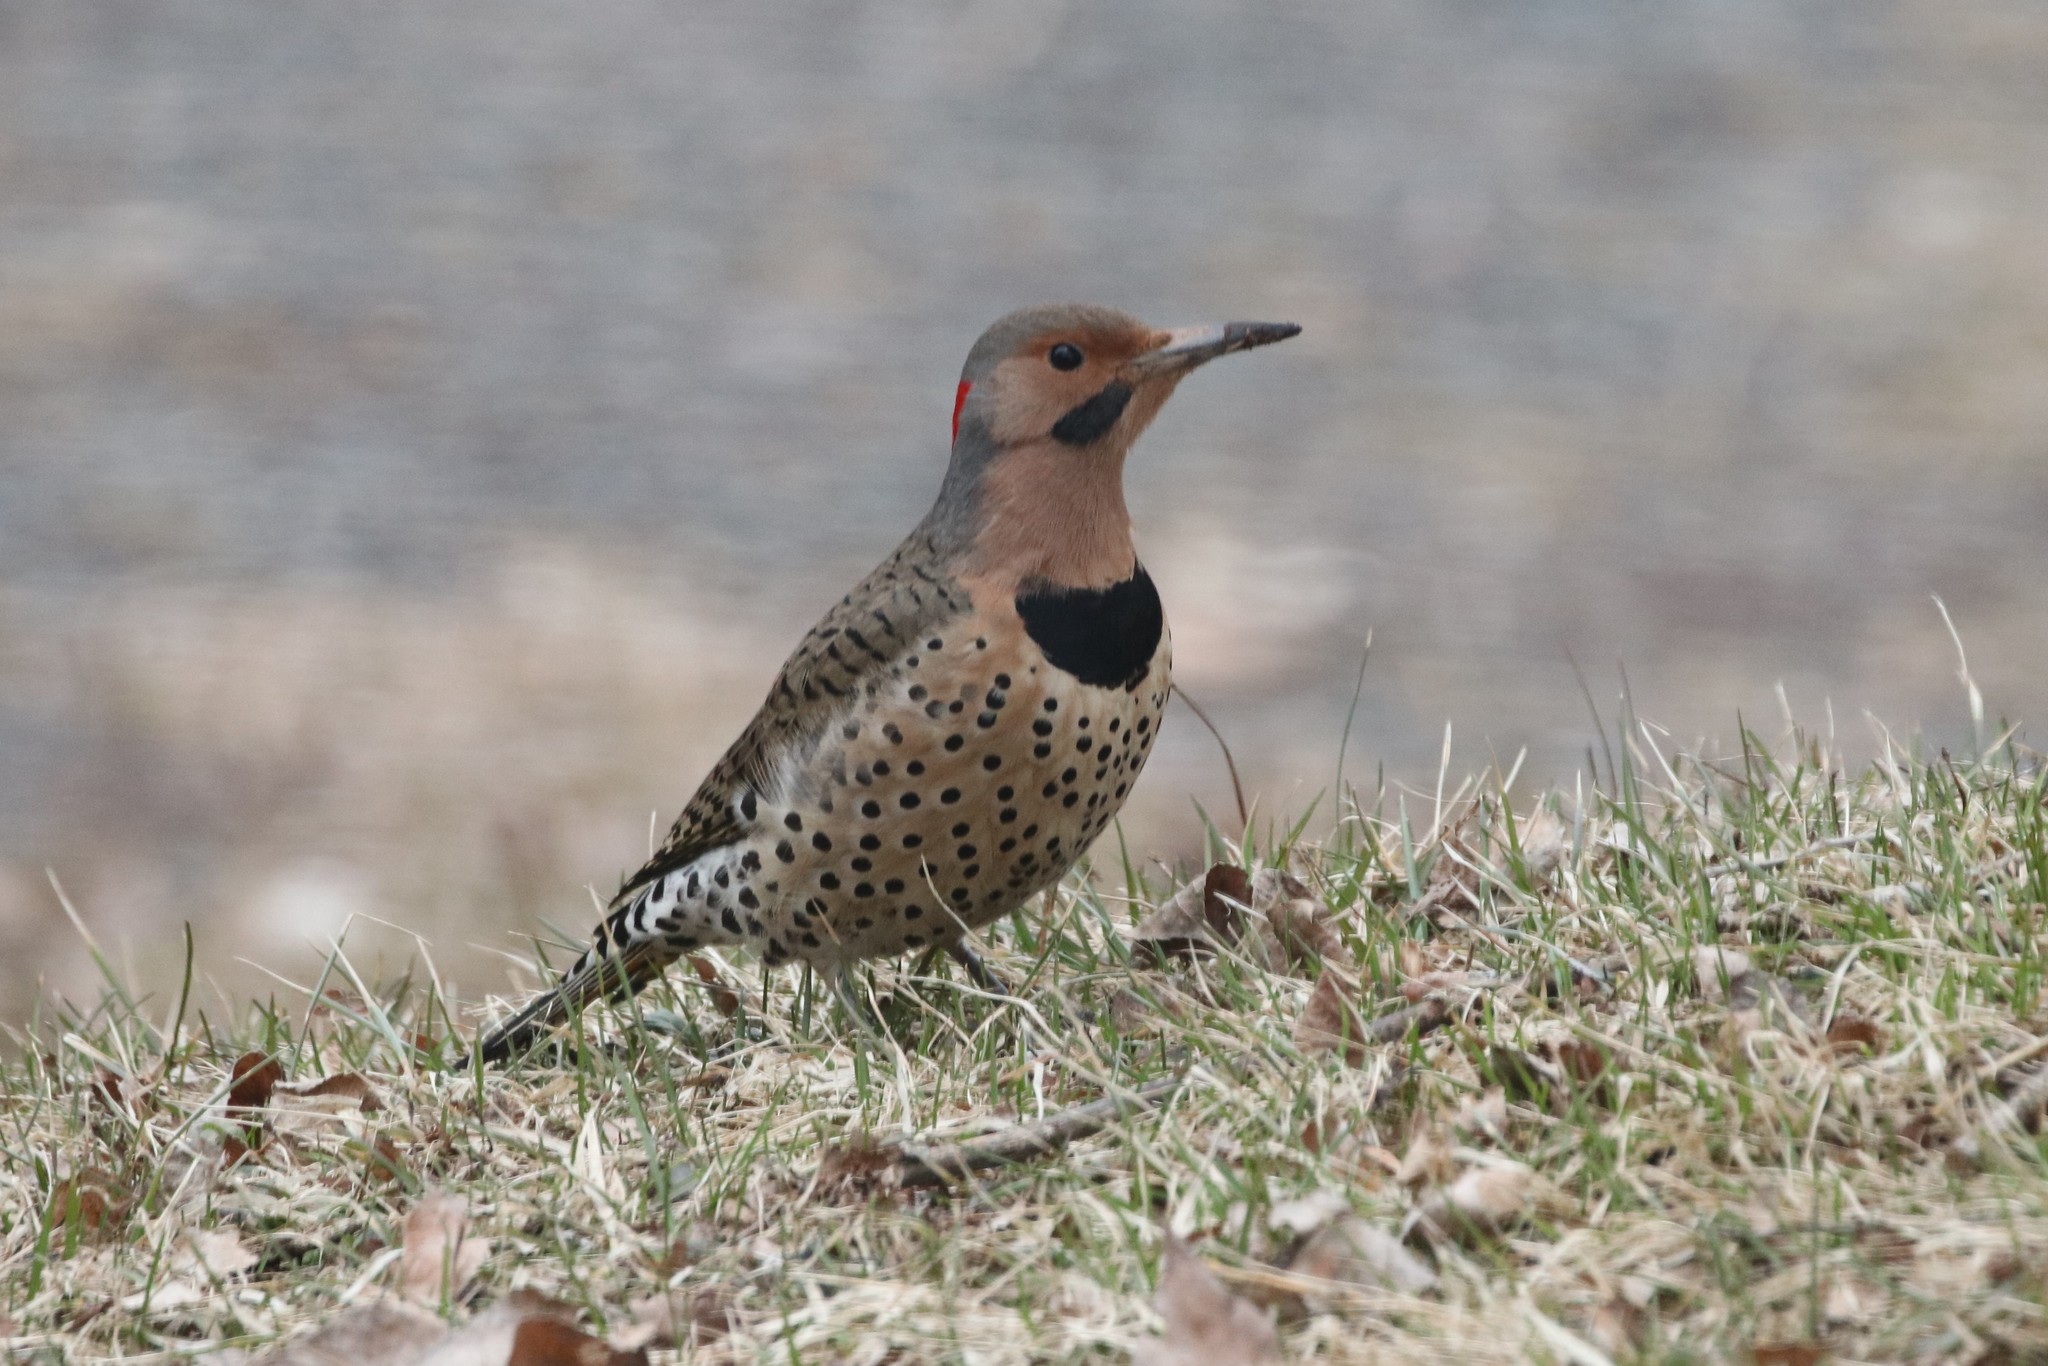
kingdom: Animalia
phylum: Chordata
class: Aves
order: Piciformes
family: Picidae
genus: Colaptes
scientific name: Colaptes auratus
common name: Northern flicker
